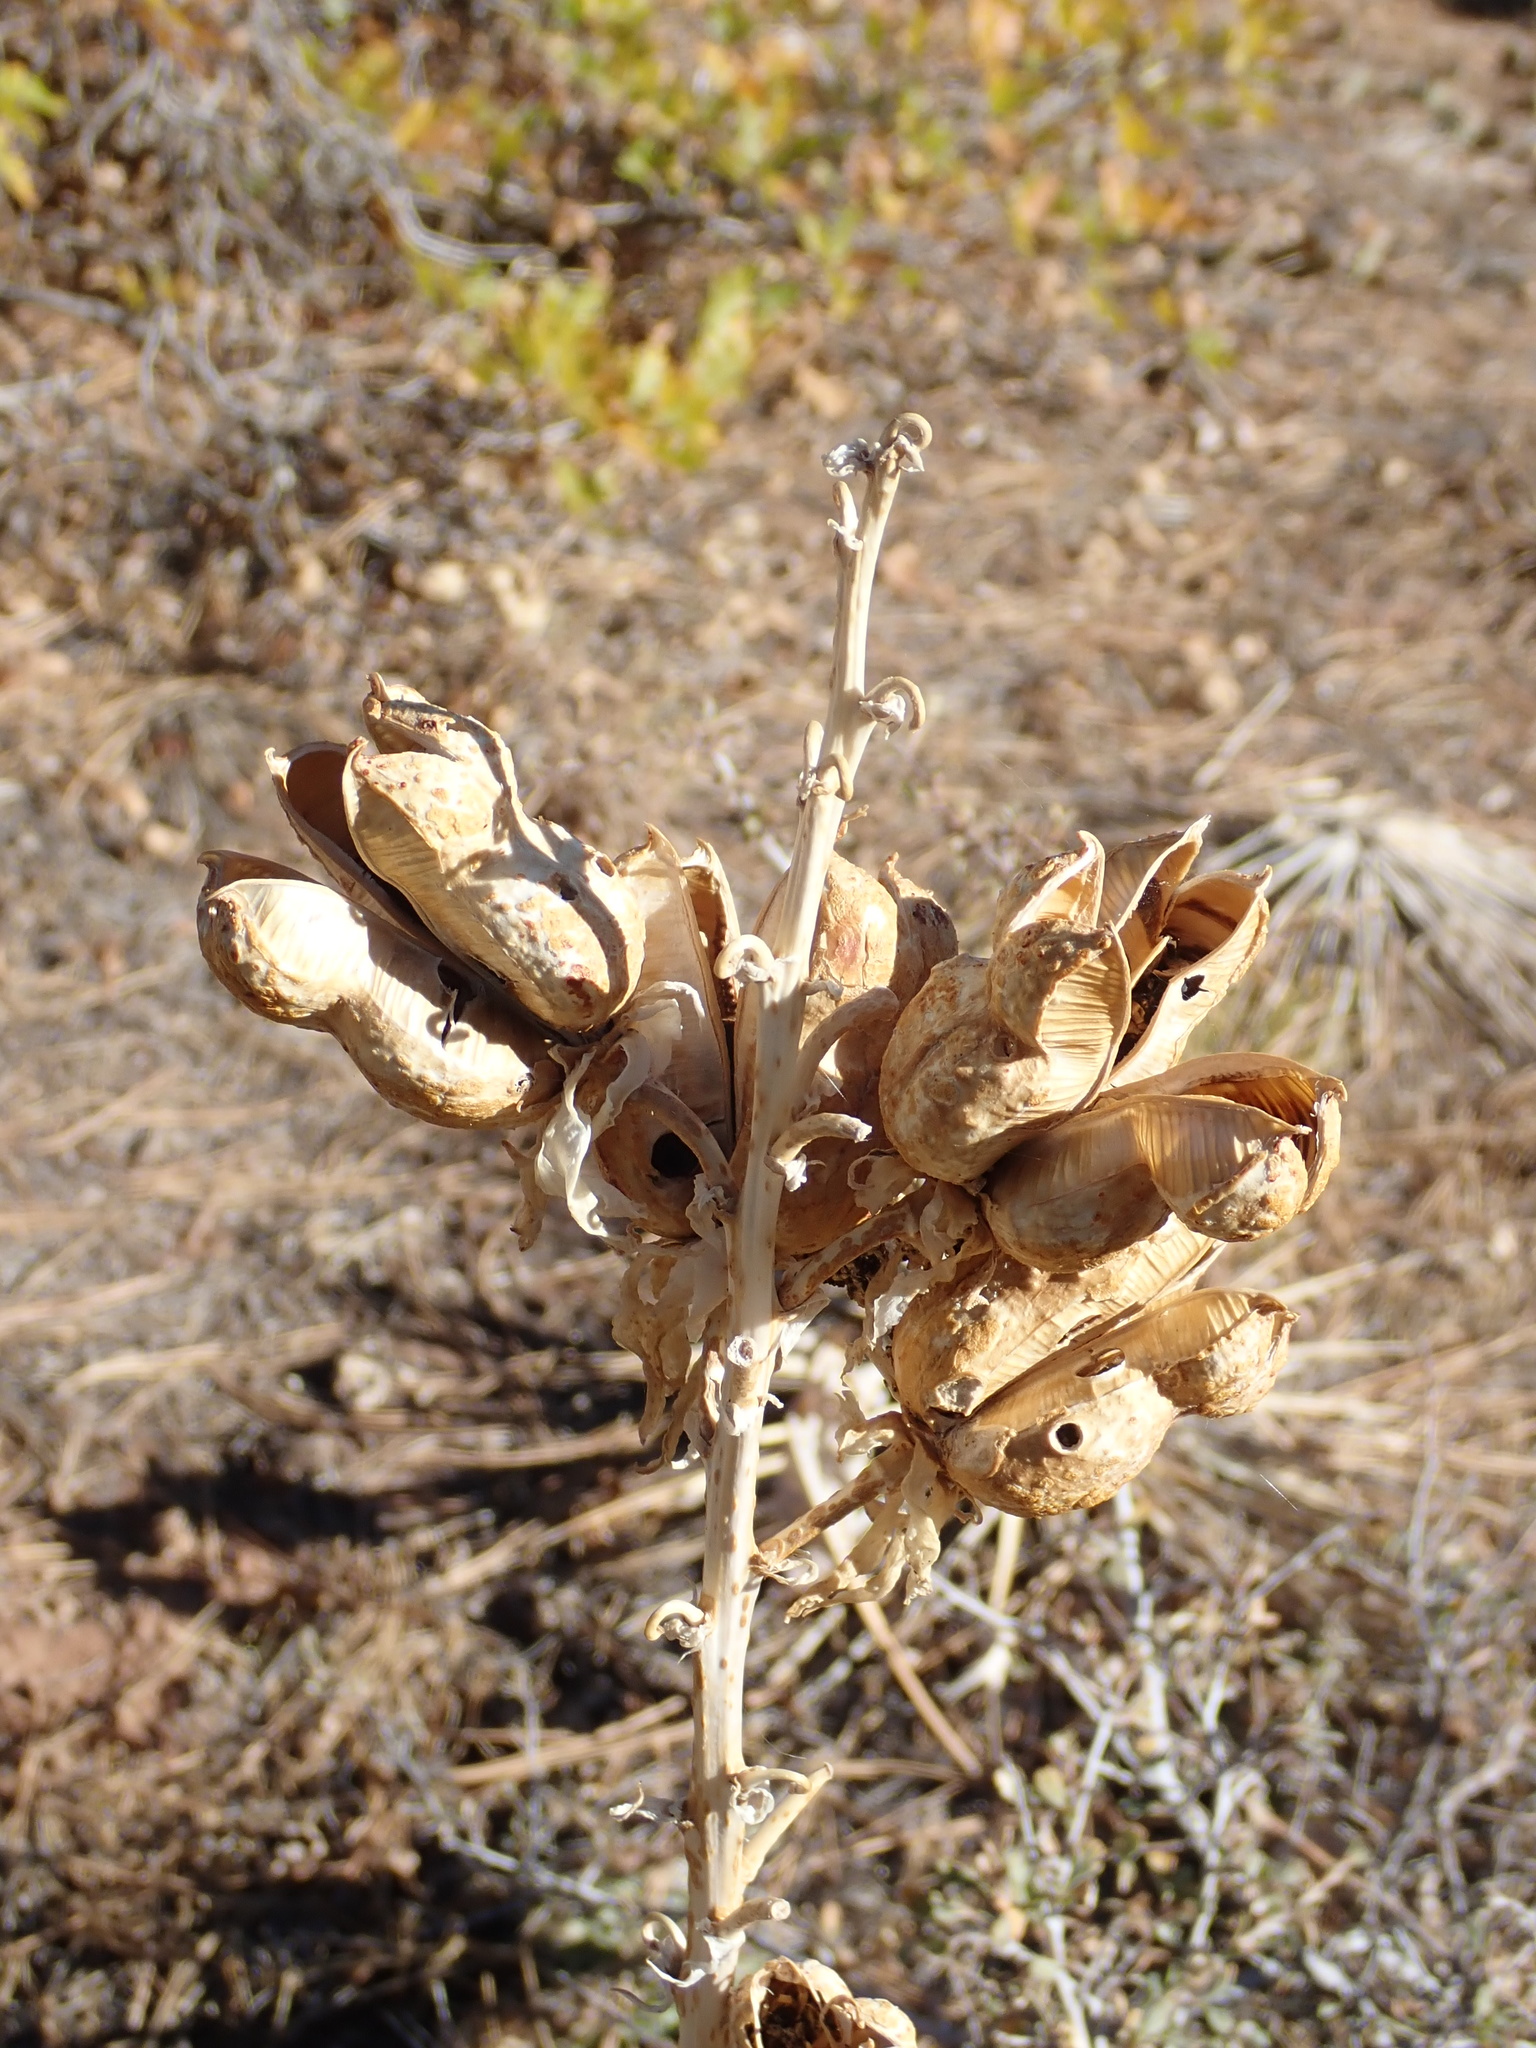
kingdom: Plantae
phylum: Tracheophyta
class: Liliopsida
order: Asparagales
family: Asparagaceae
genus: Yucca
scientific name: Yucca harrimaniae
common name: Harriman's yucca
